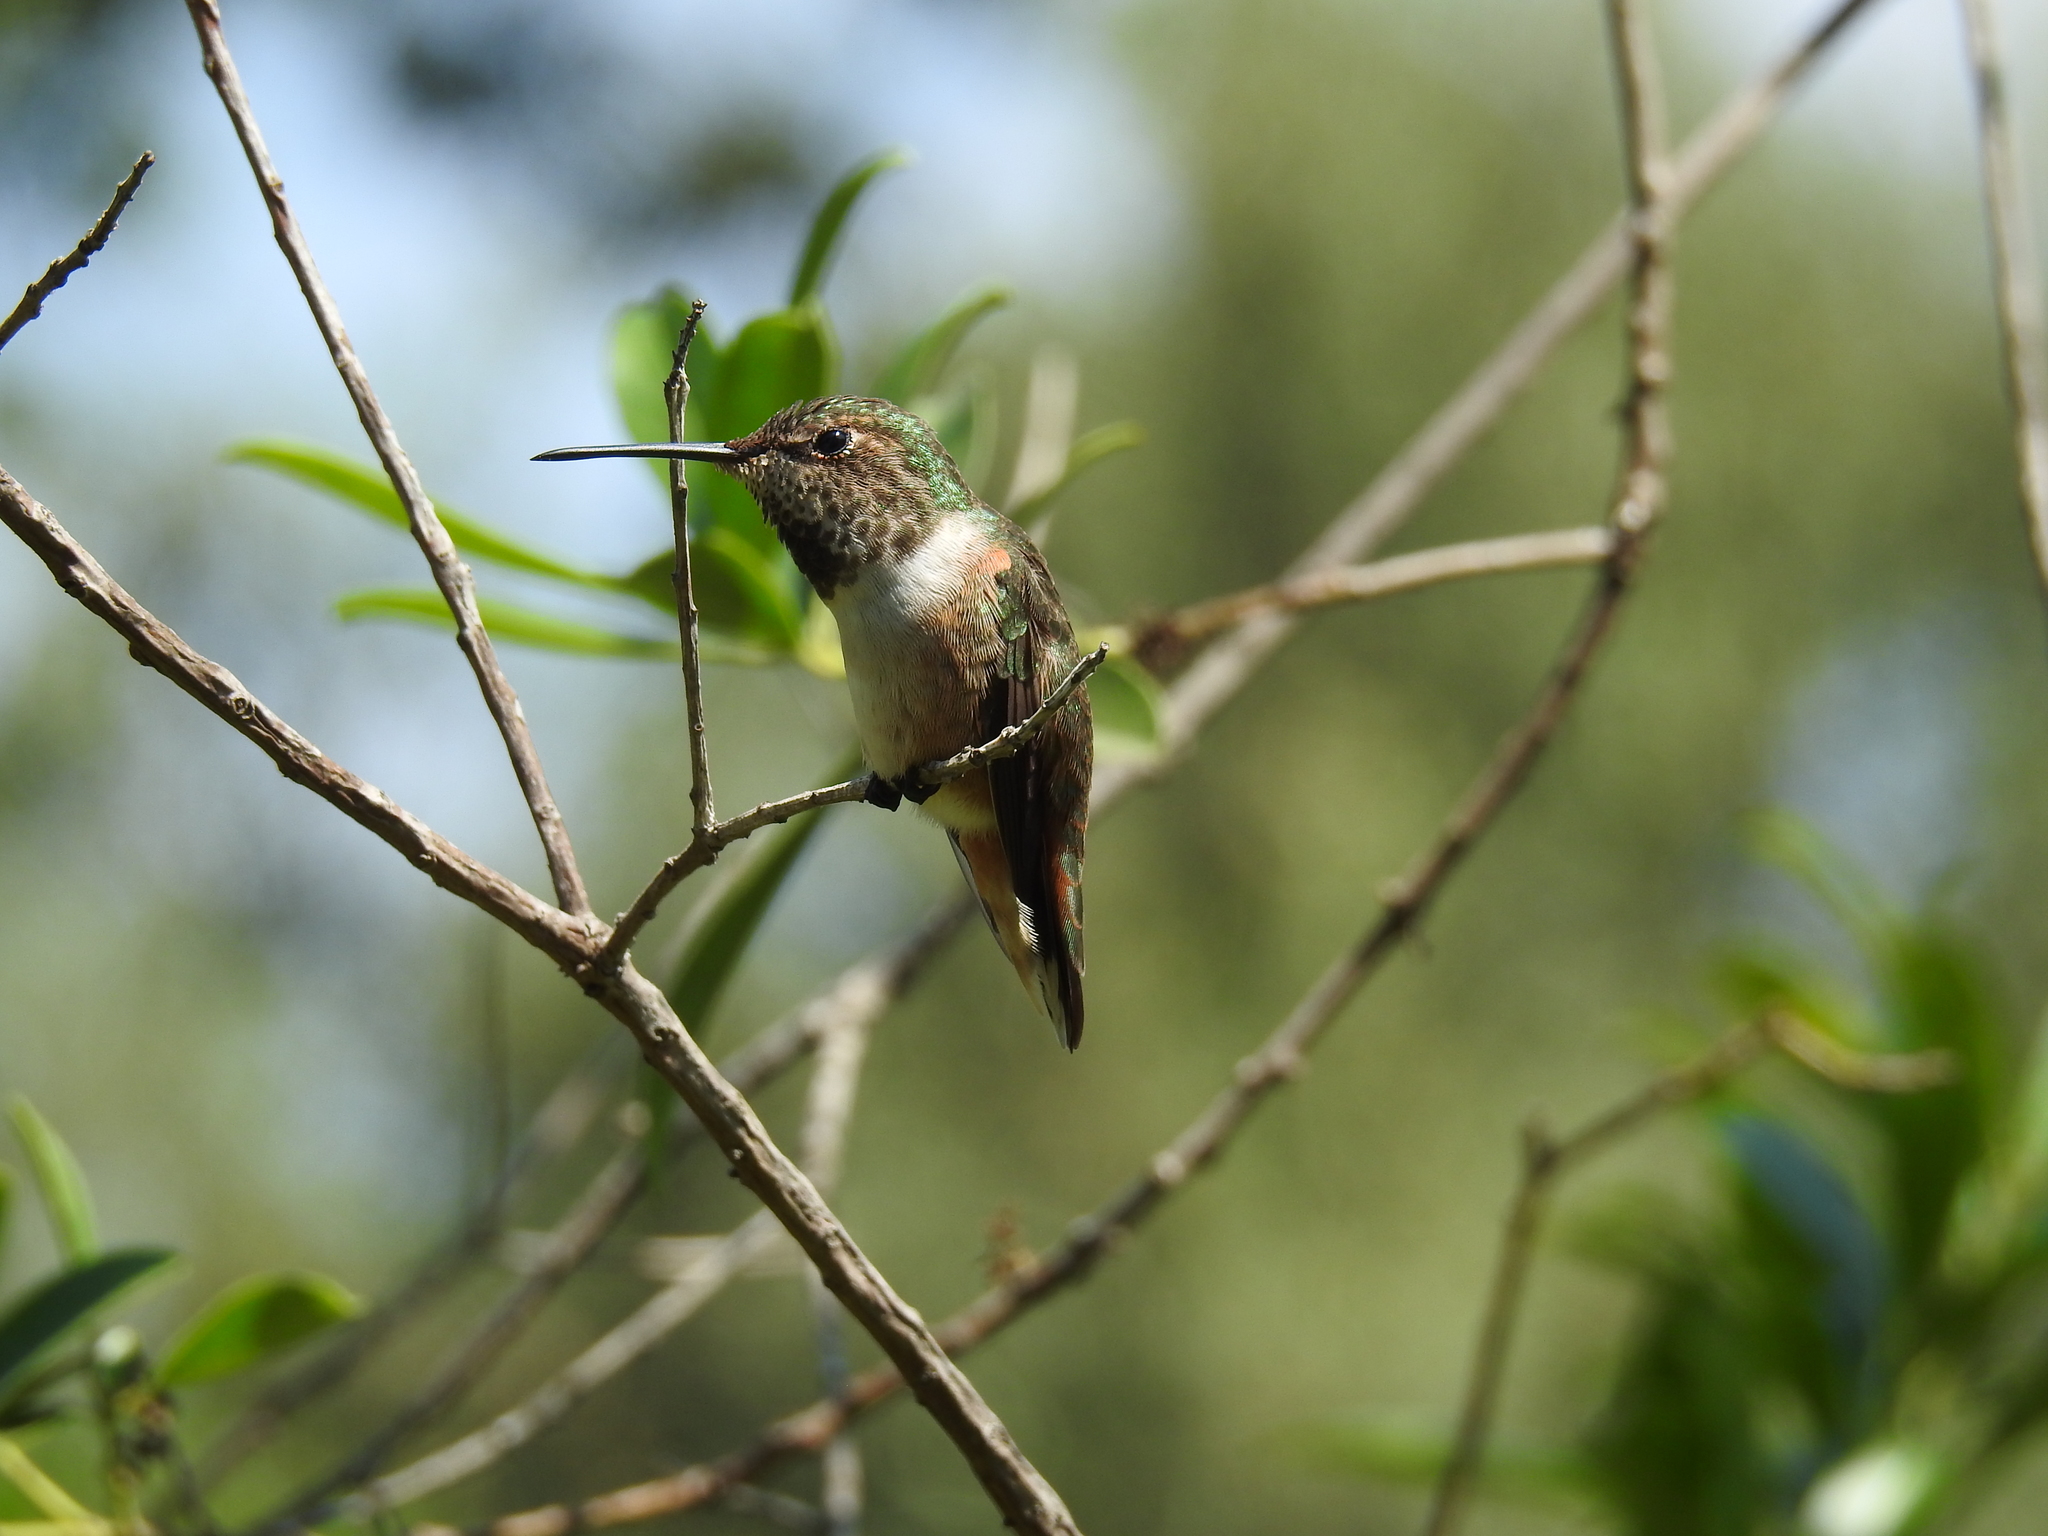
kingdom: Animalia
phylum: Chordata
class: Aves
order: Apodiformes
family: Trochilidae
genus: Selasphorus
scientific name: Selasphorus
